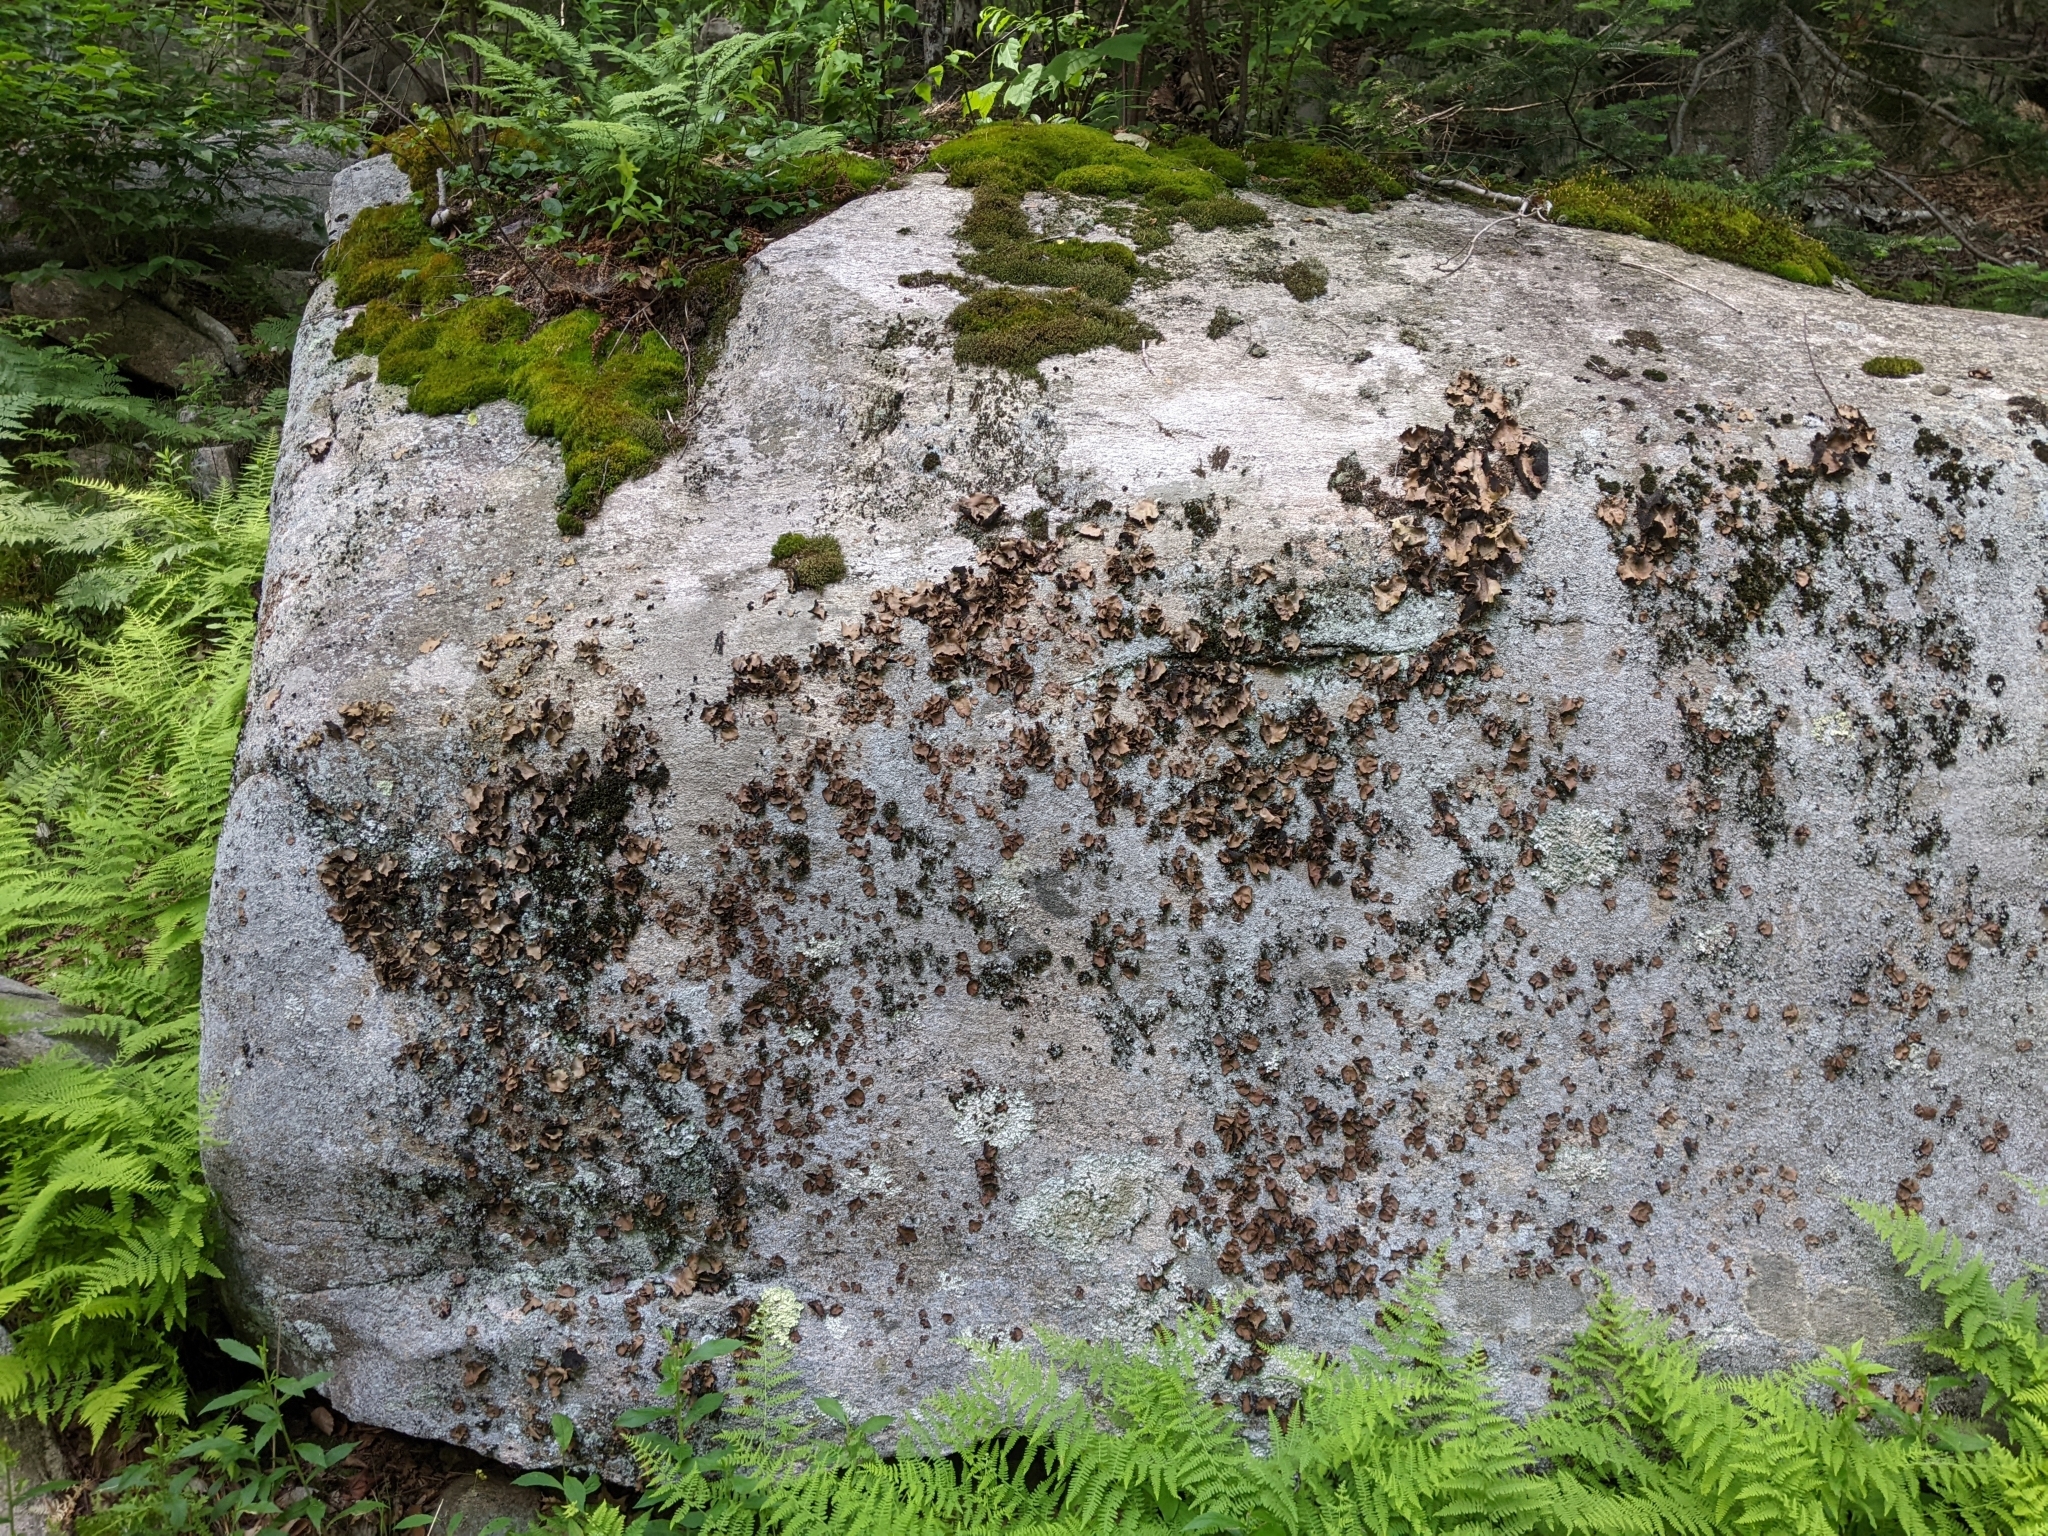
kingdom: Fungi
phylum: Ascomycota
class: Lecanoromycetes
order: Umbilicariales
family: Umbilicariaceae
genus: Umbilicaria
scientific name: Umbilicaria mammulata
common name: Smooth rock tripe
